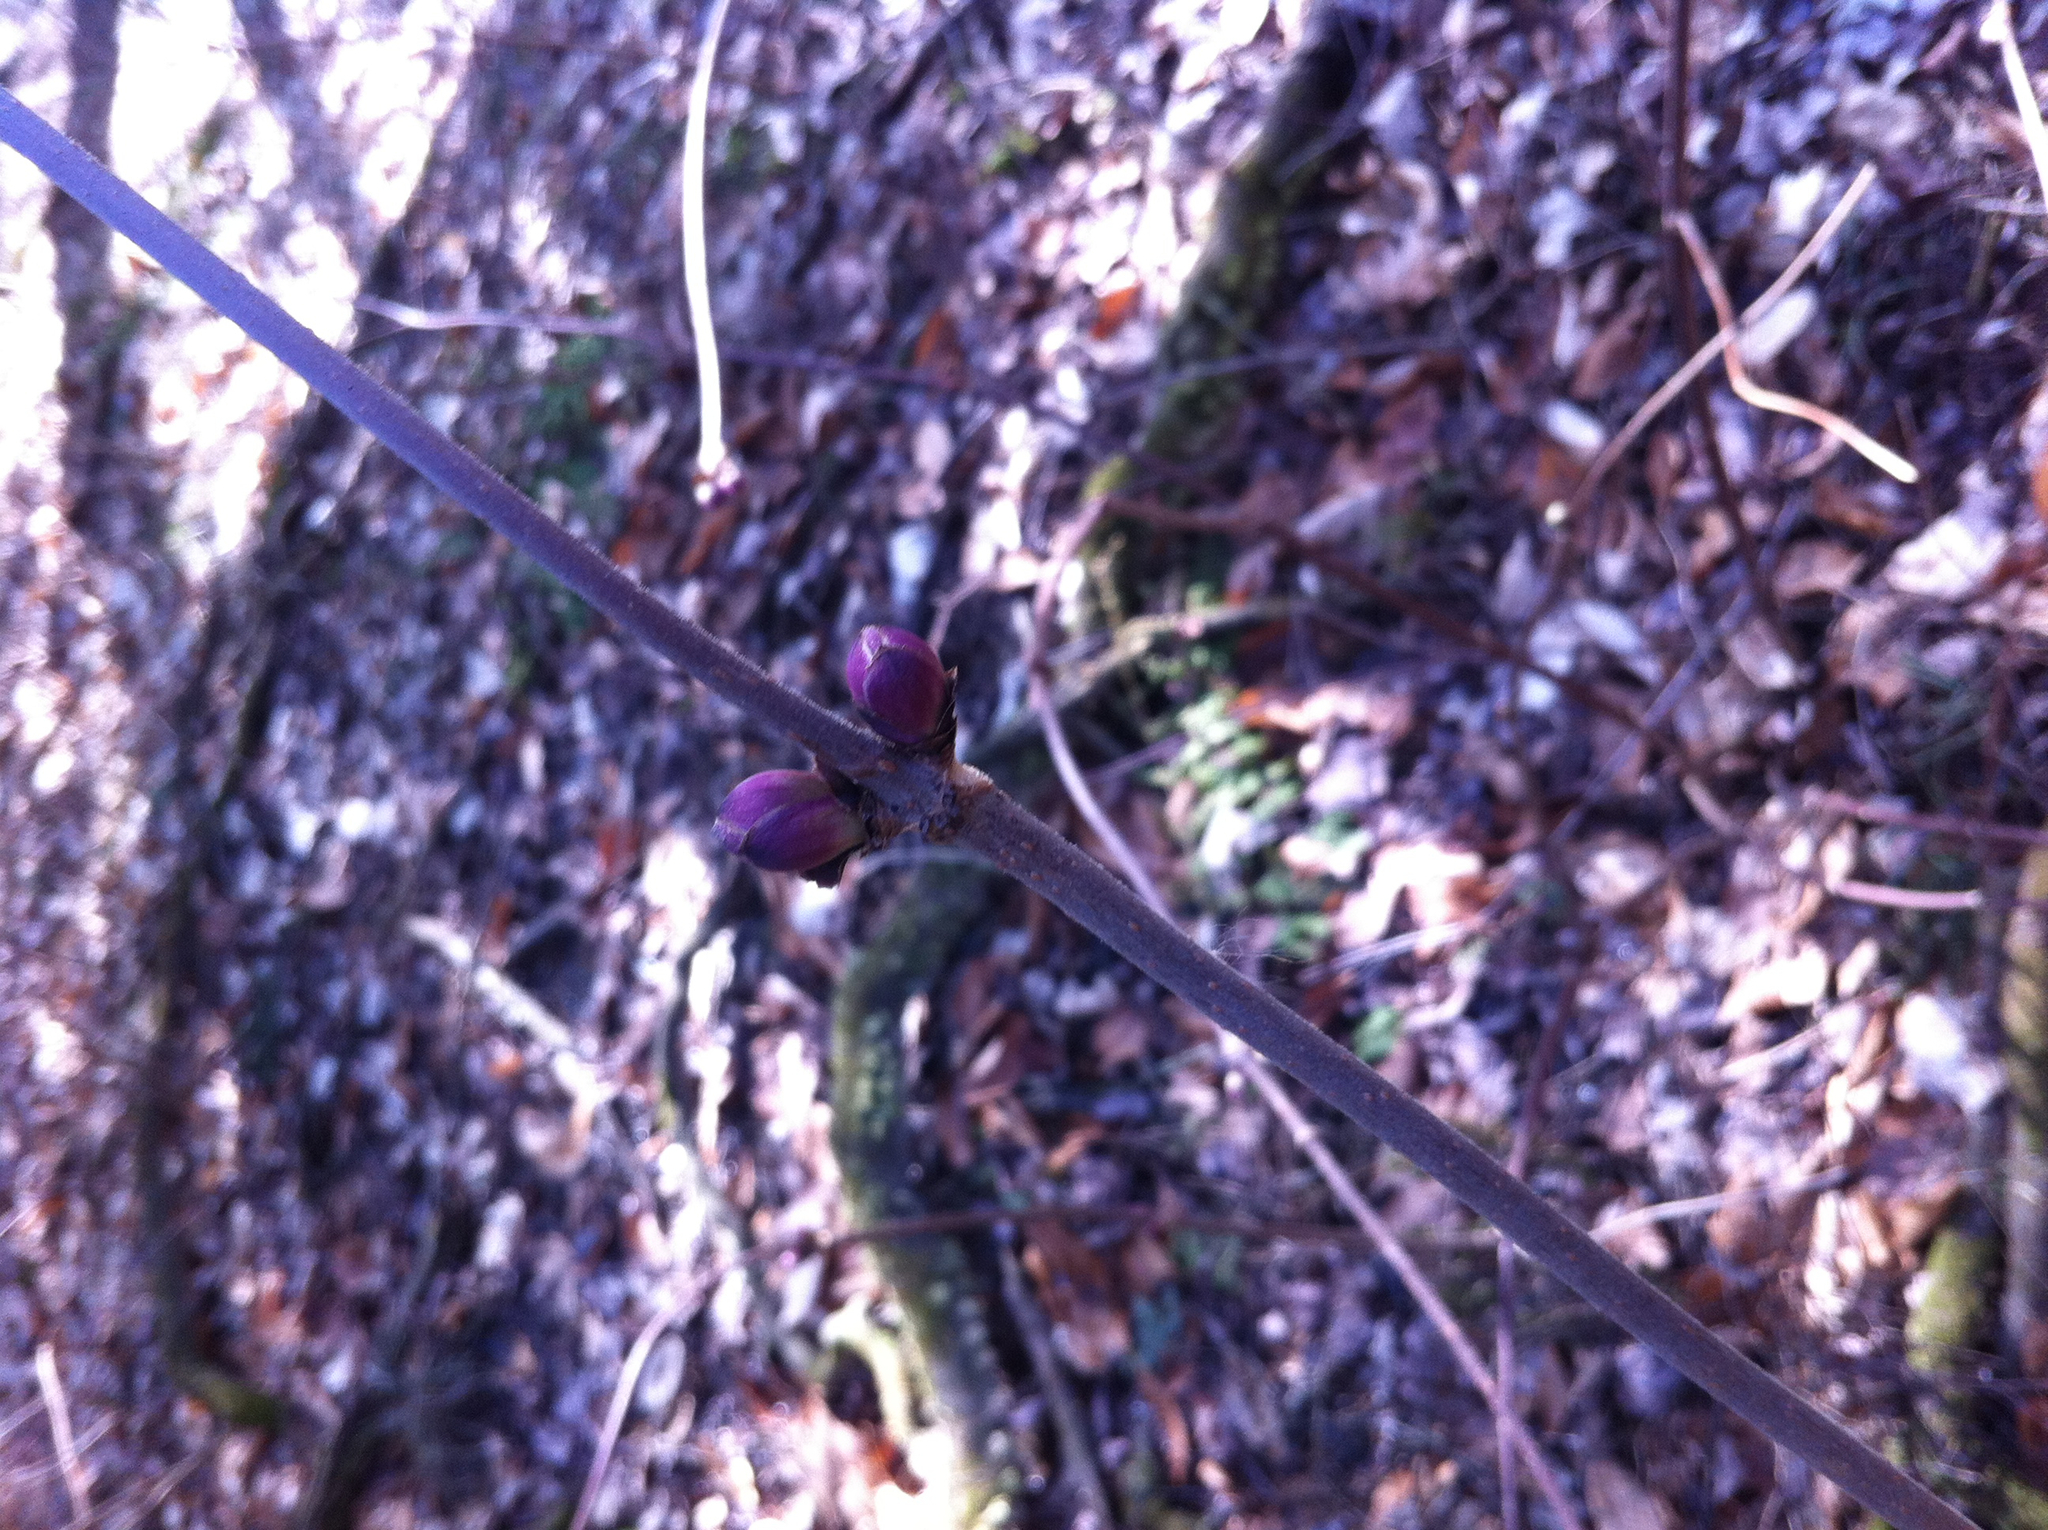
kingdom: Plantae
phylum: Tracheophyta
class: Magnoliopsida
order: Dipsacales
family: Viburnaceae
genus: Sambucus
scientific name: Sambucus racemosa
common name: Red-berried elder
